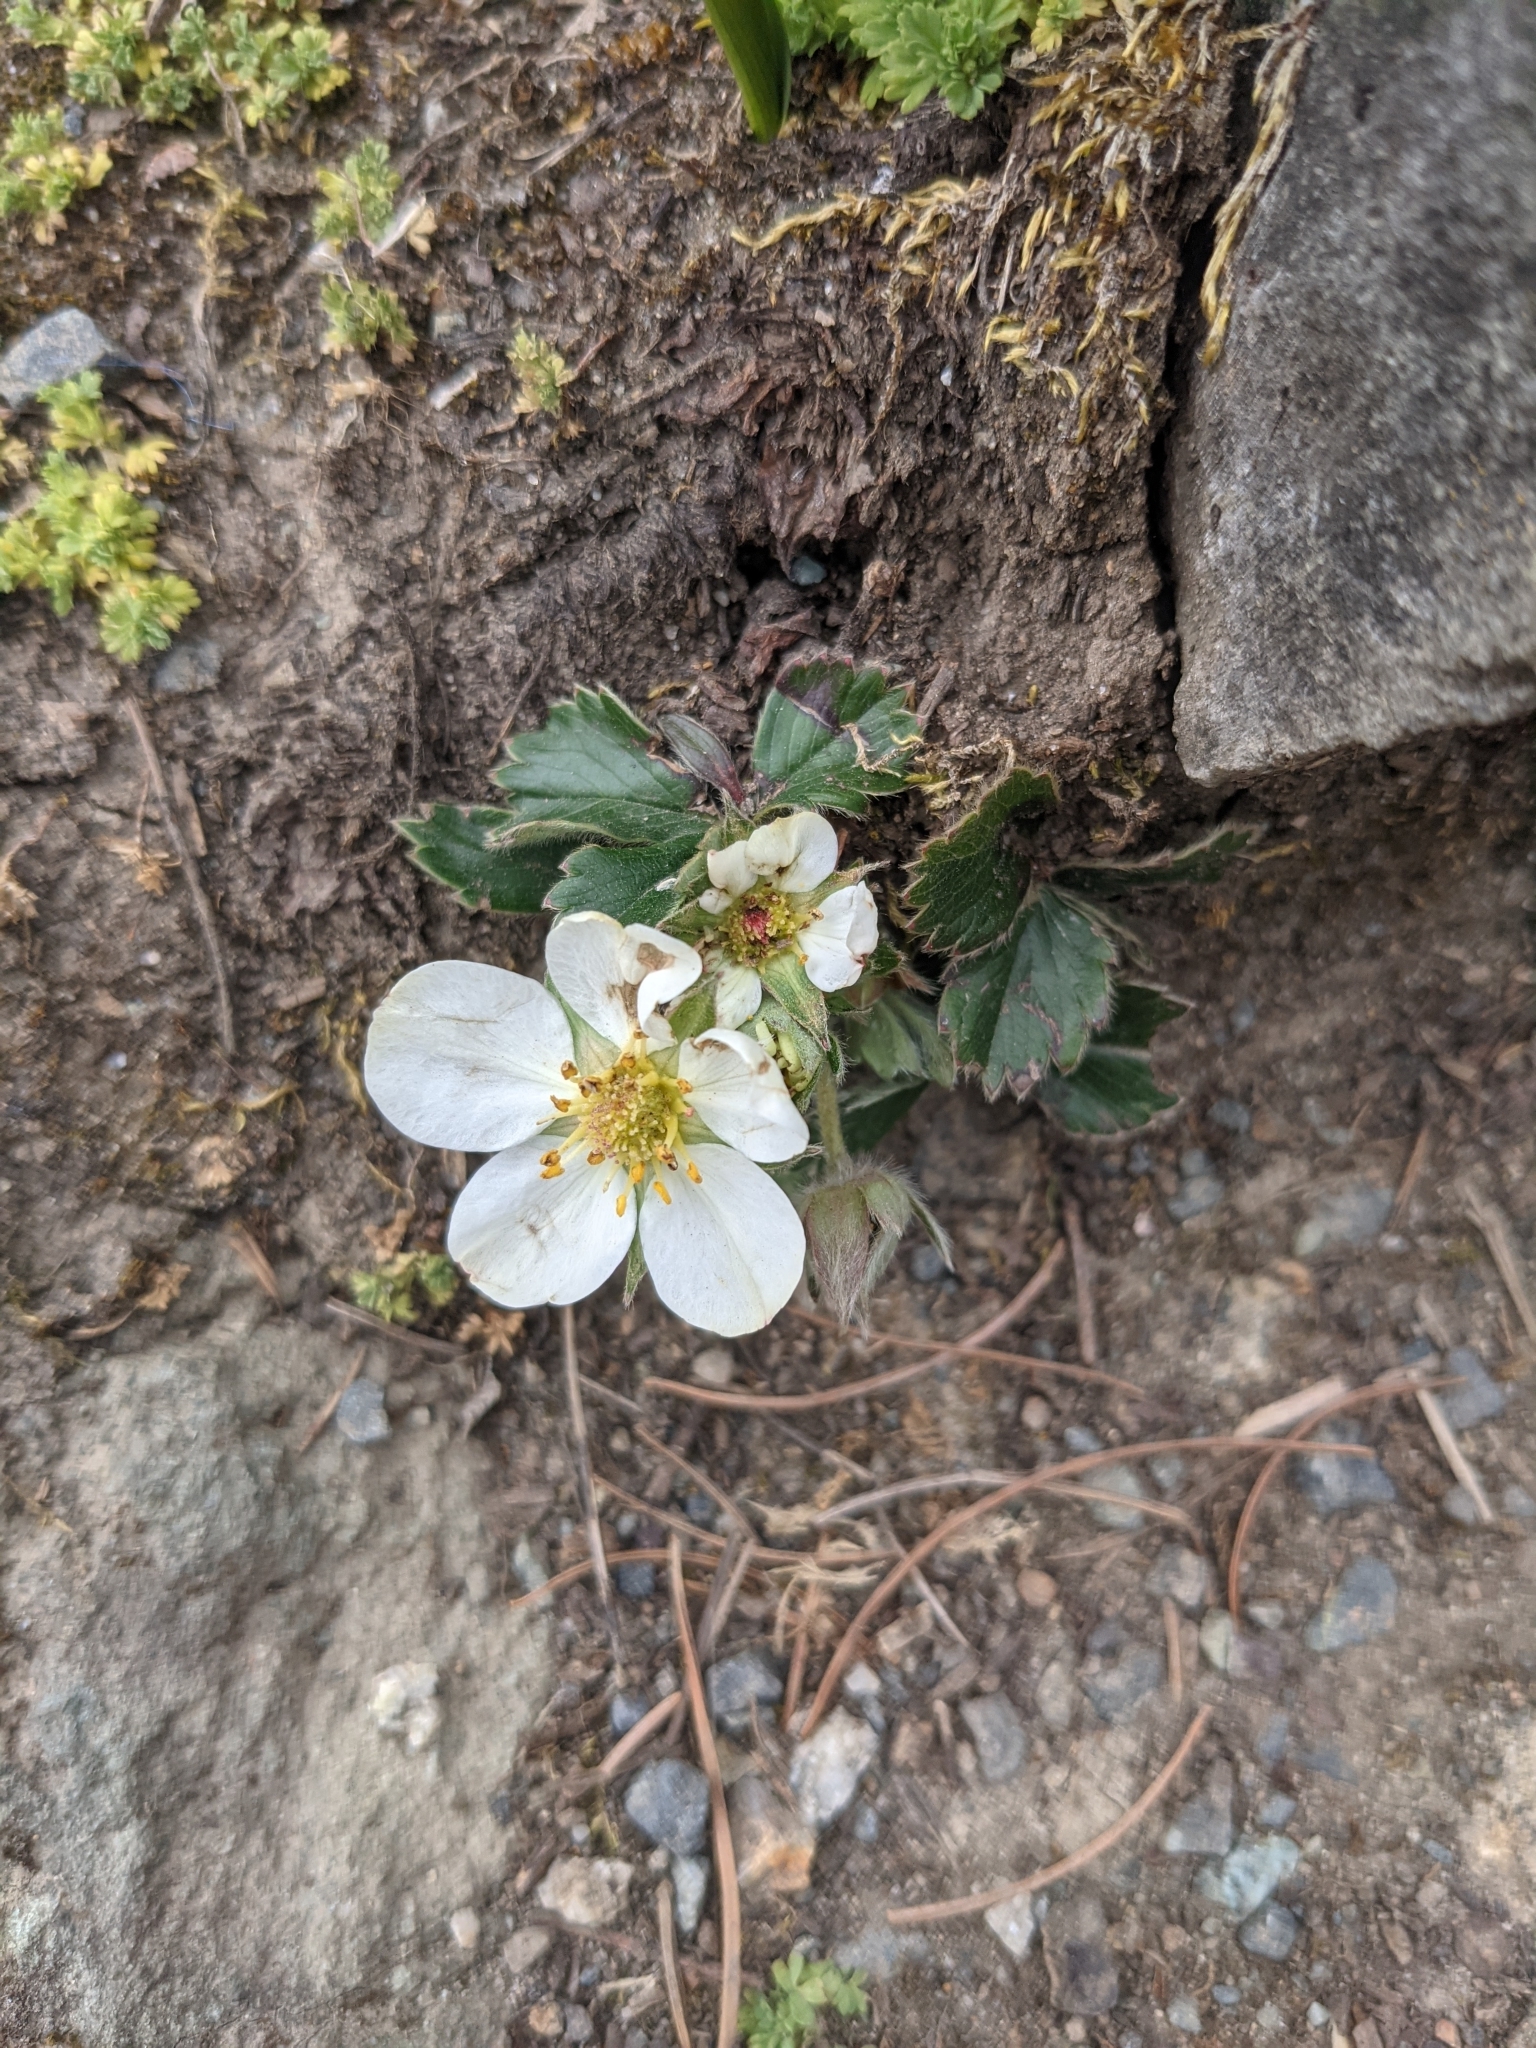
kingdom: Plantae
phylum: Tracheophyta
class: Magnoliopsida
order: Rosales
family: Rosaceae
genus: Fragaria
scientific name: Fragaria chiloensis
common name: Beach strawberry
